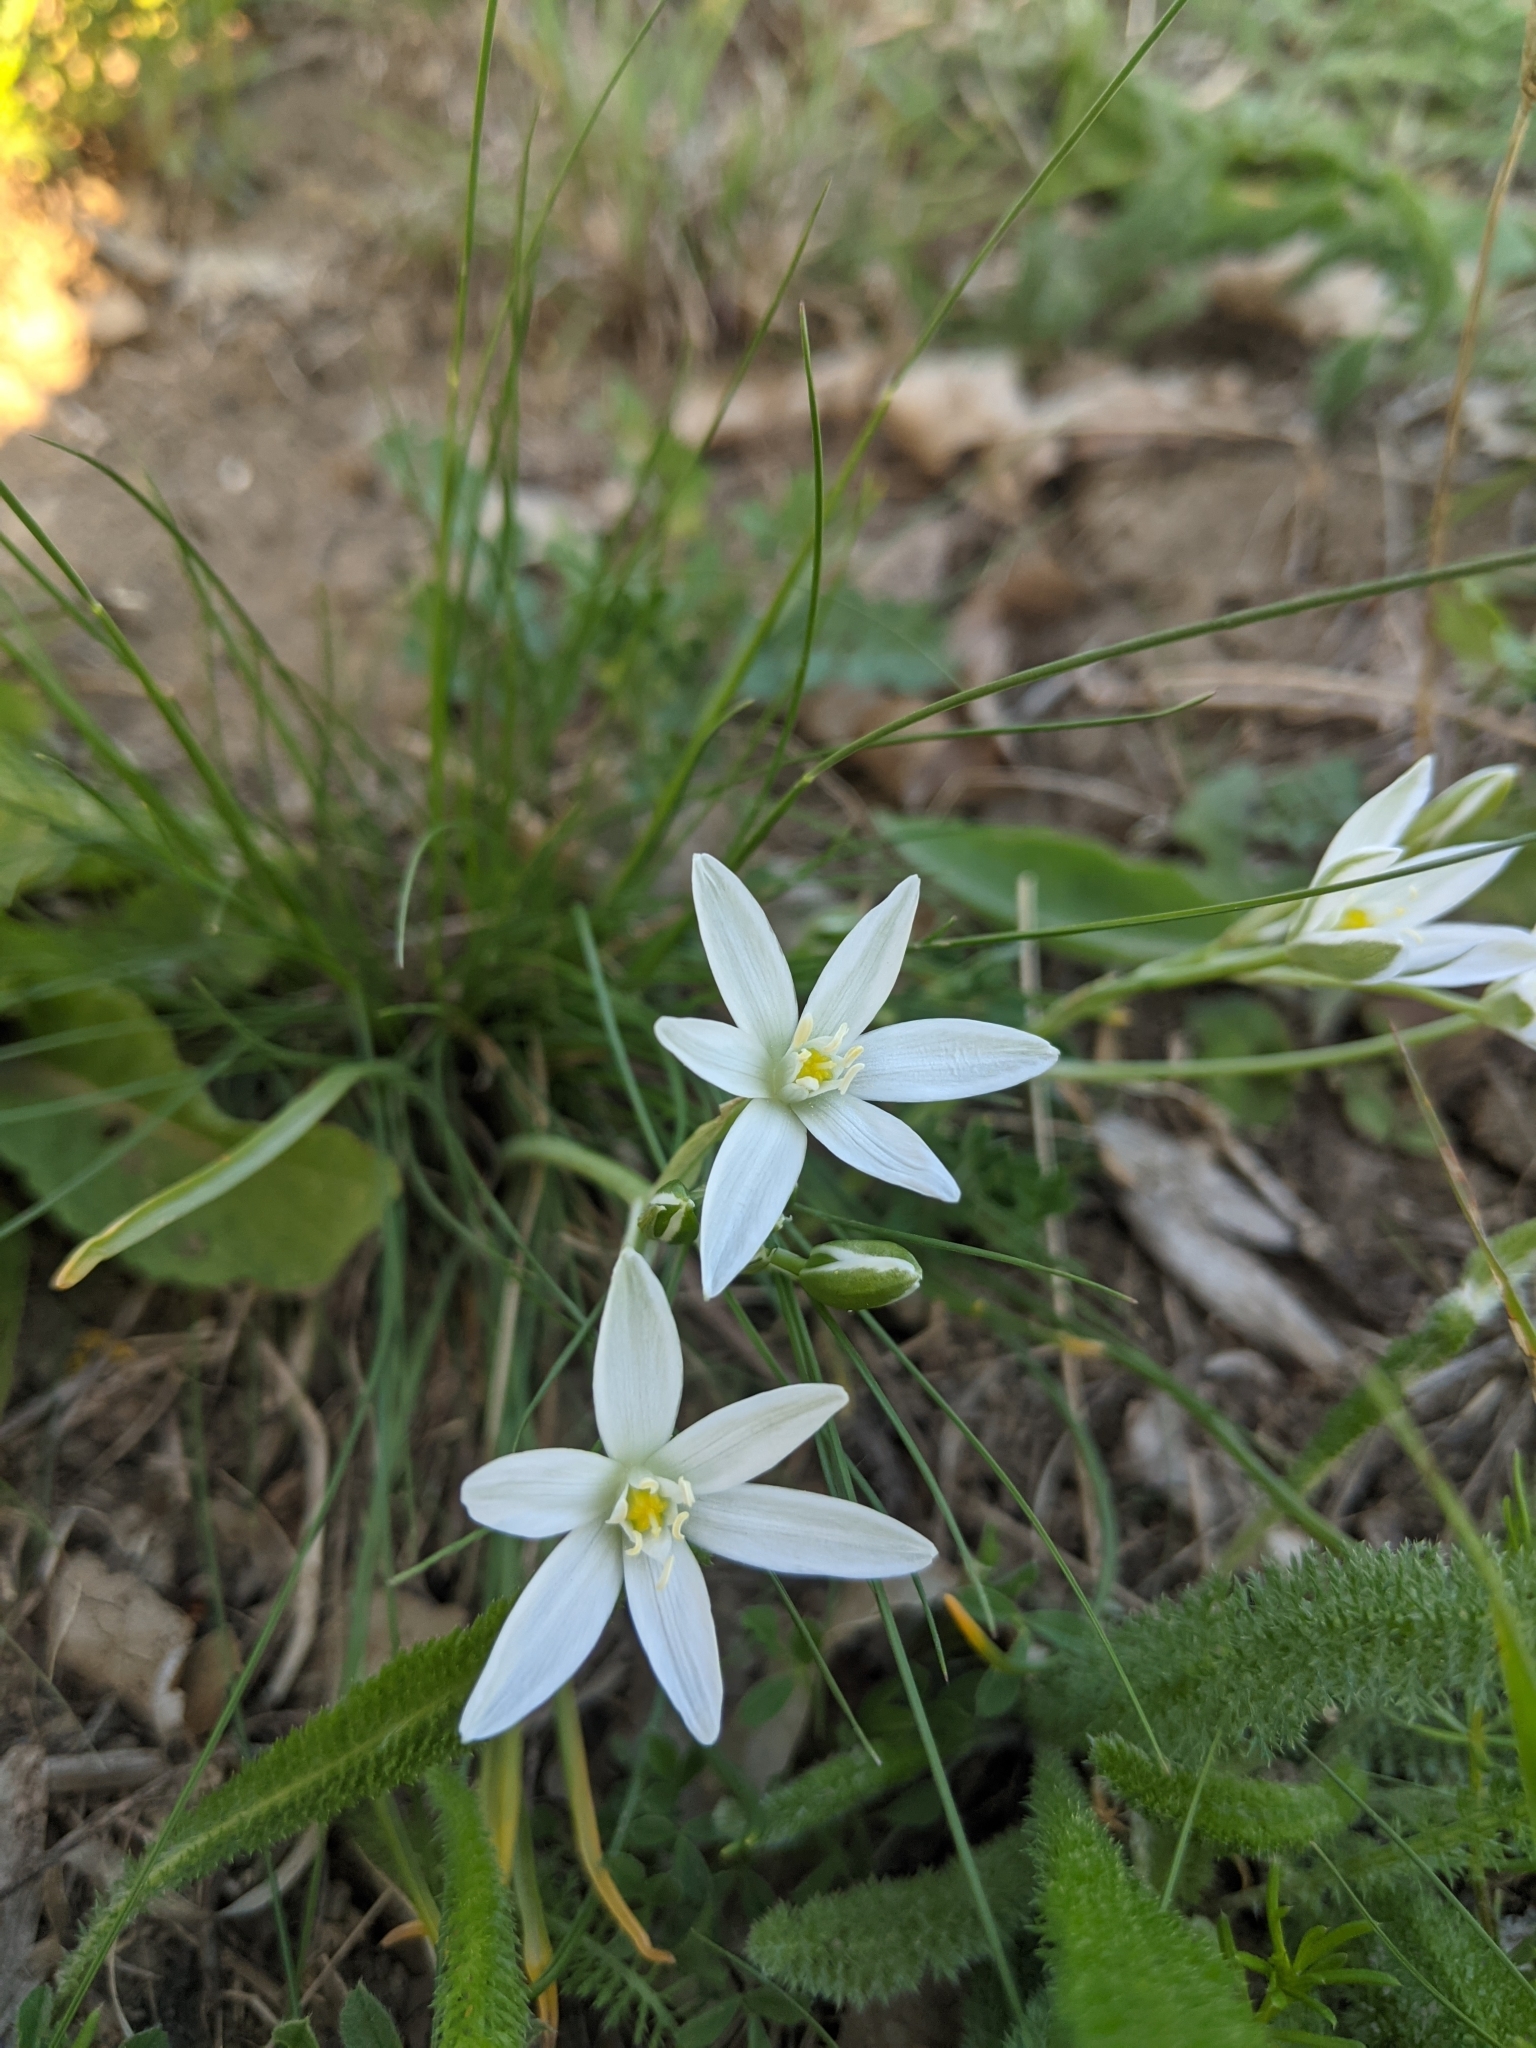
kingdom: Plantae
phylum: Tracheophyta
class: Liliopsida
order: Asparagales
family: Asparagaceae
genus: Ornithogalum
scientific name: Ornithogalum orthophyllum
